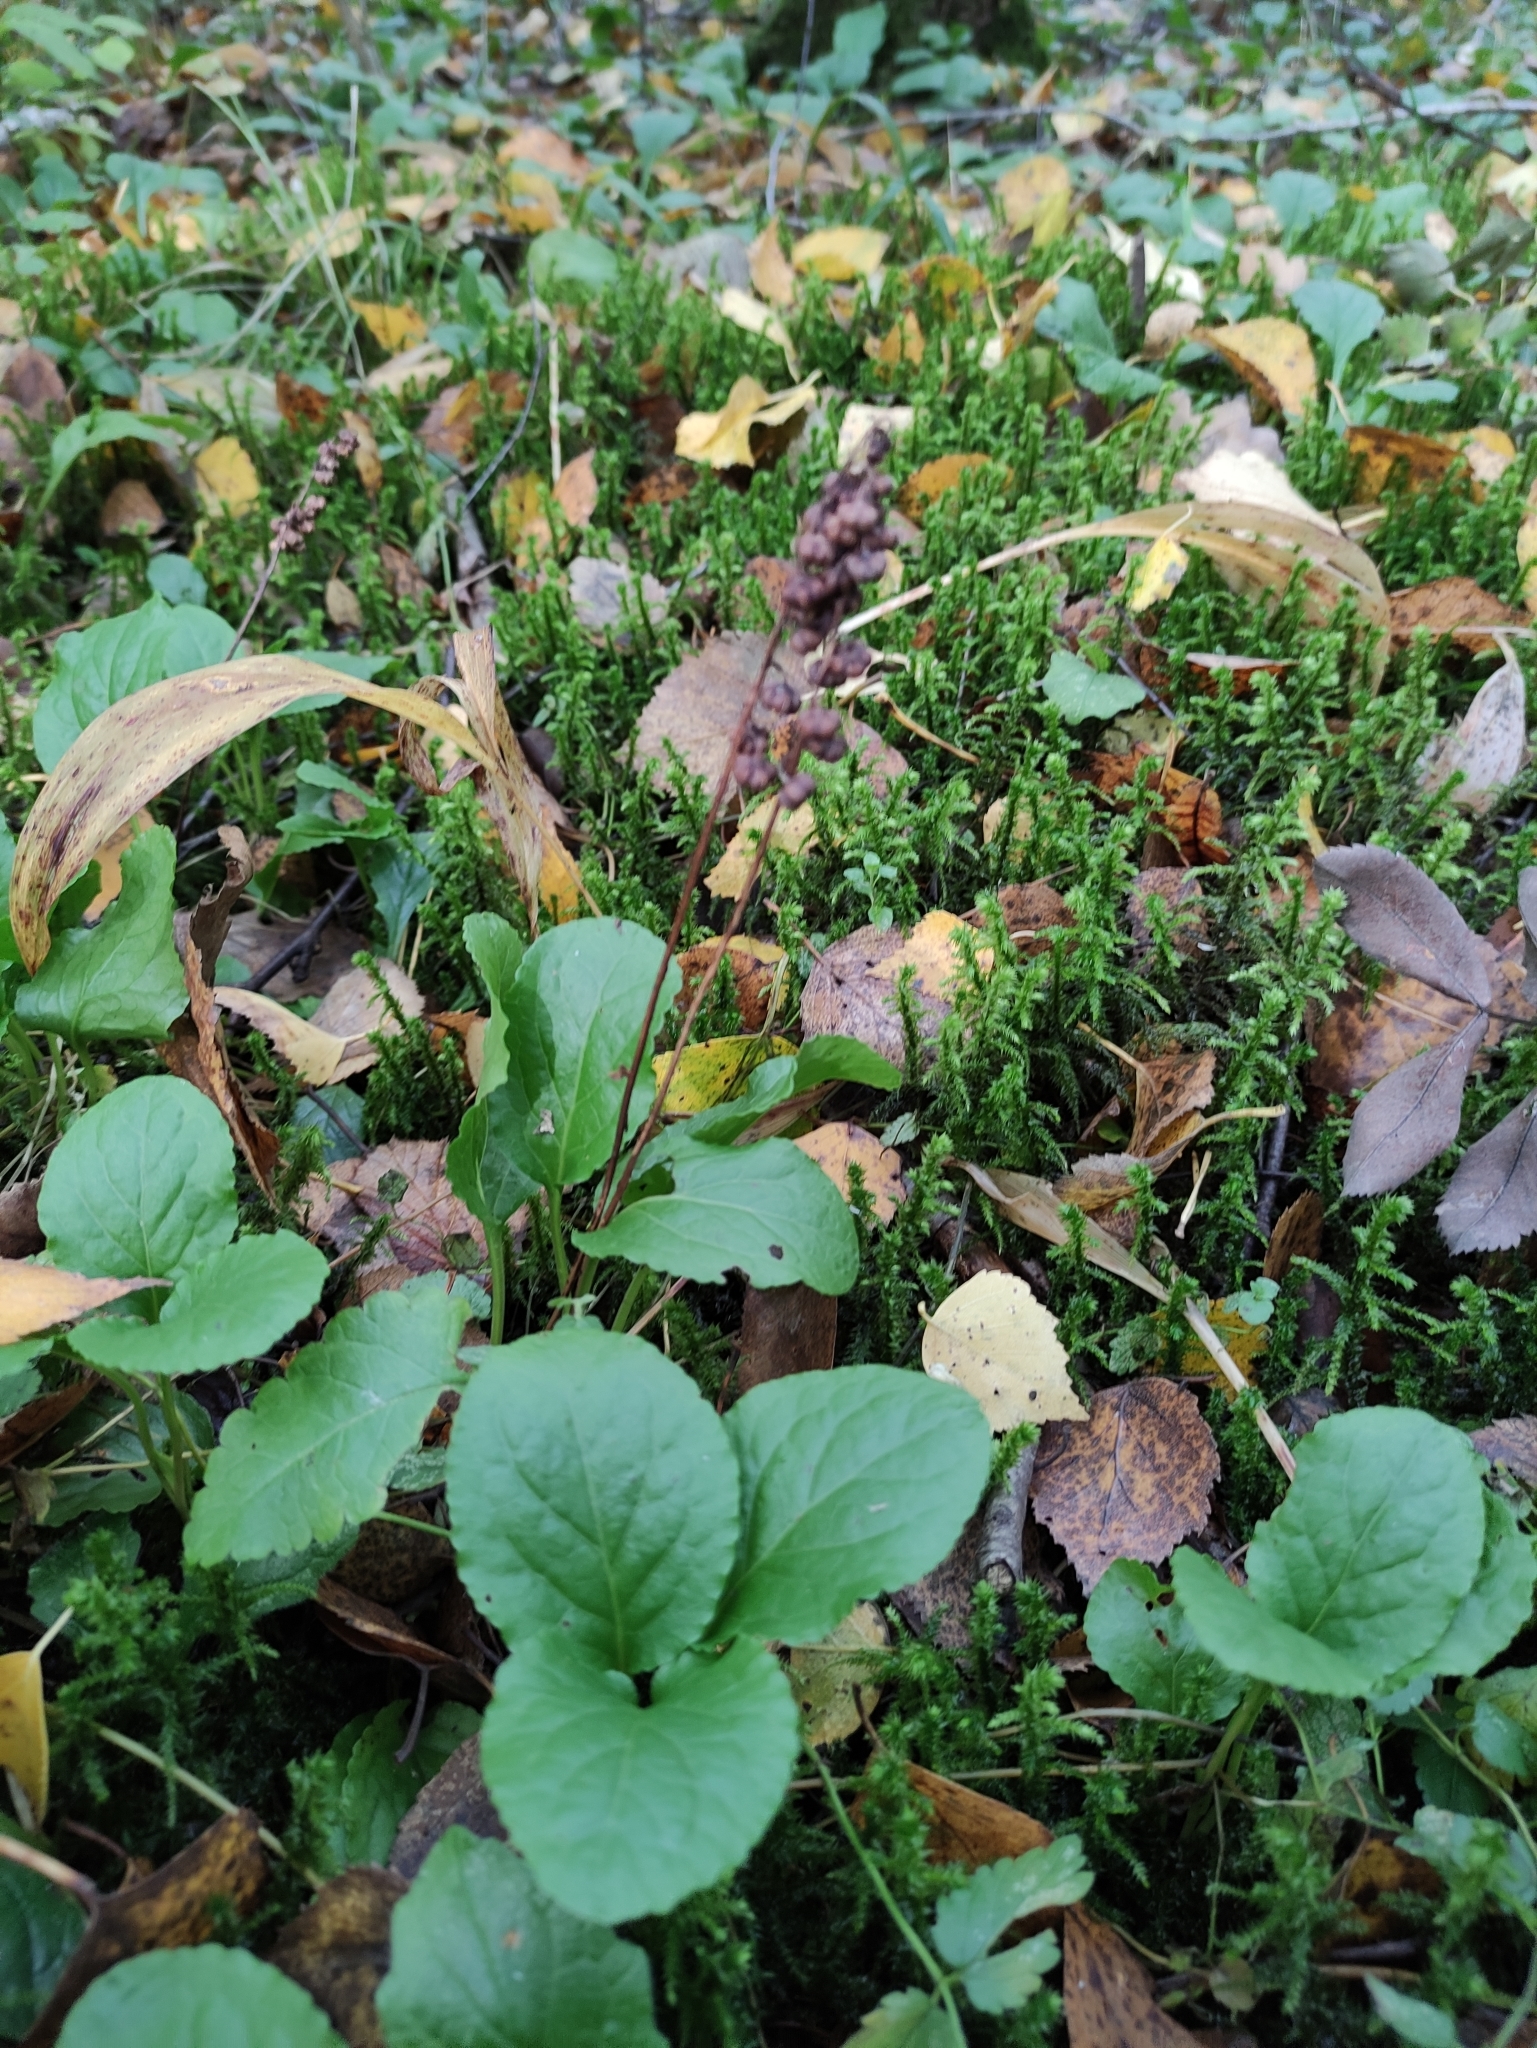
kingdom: Plantae
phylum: Tracheophyta
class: Magnoliopsida
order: Ericales
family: Ericaceae
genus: Pyrola
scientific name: Pyrola minor
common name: Common wintergreen
